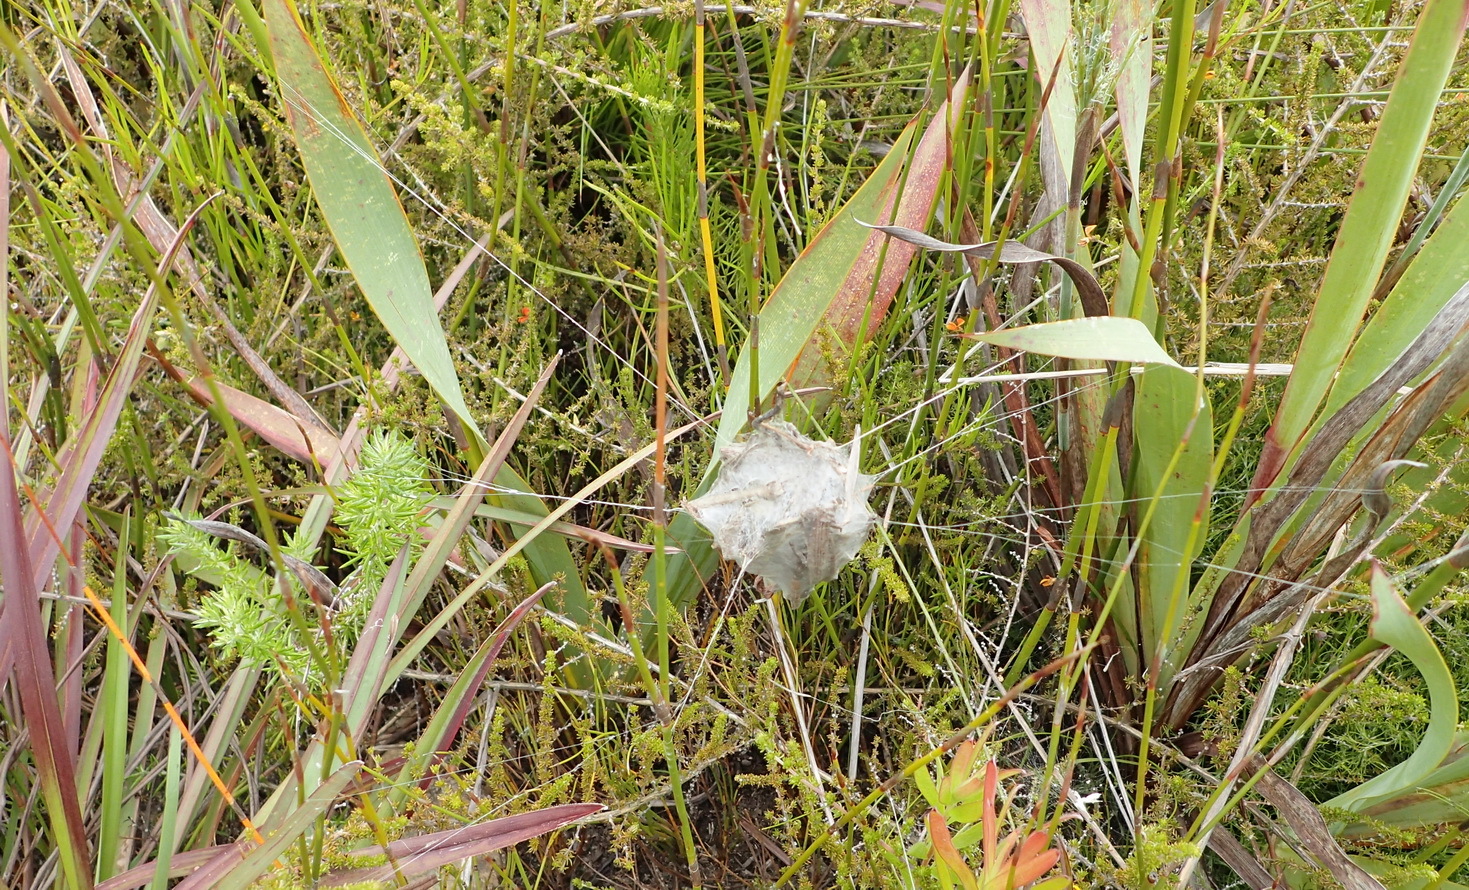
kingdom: Animalia
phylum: Arthropoda
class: Arachnida
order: Araneae
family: Sparassidae
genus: Palystes
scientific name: Palystes superciliosus
